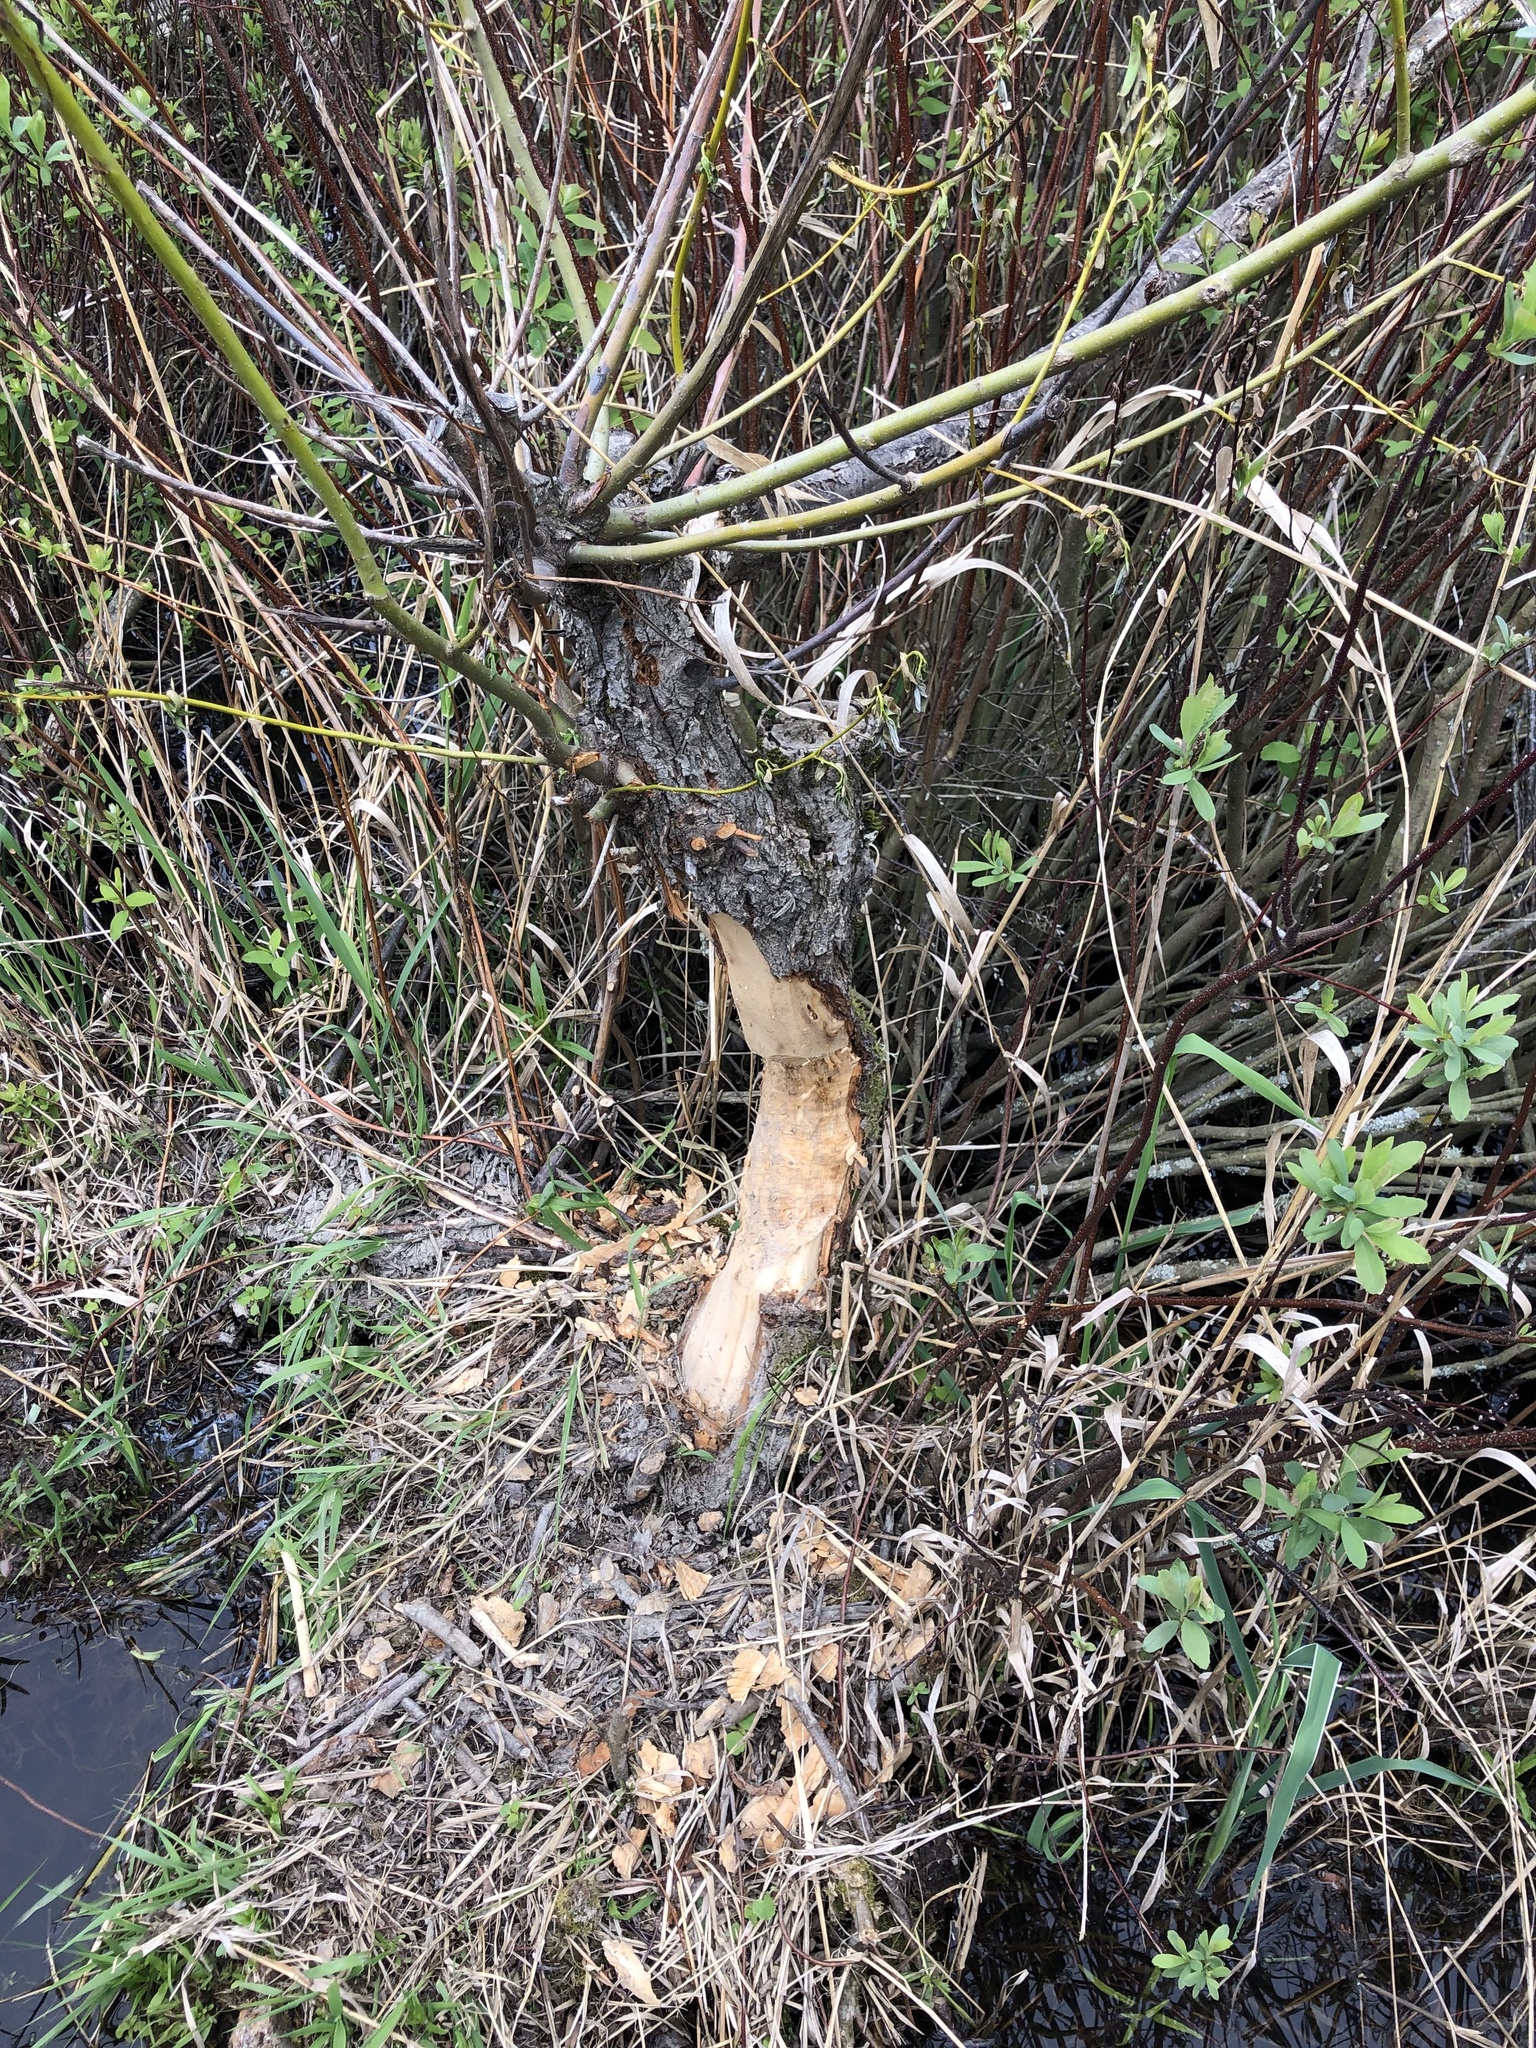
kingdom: Animalia
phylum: Chordata
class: Mammalia
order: Rodentia
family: Castoridae
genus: Castor
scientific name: Castor canadensis
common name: American beaver
